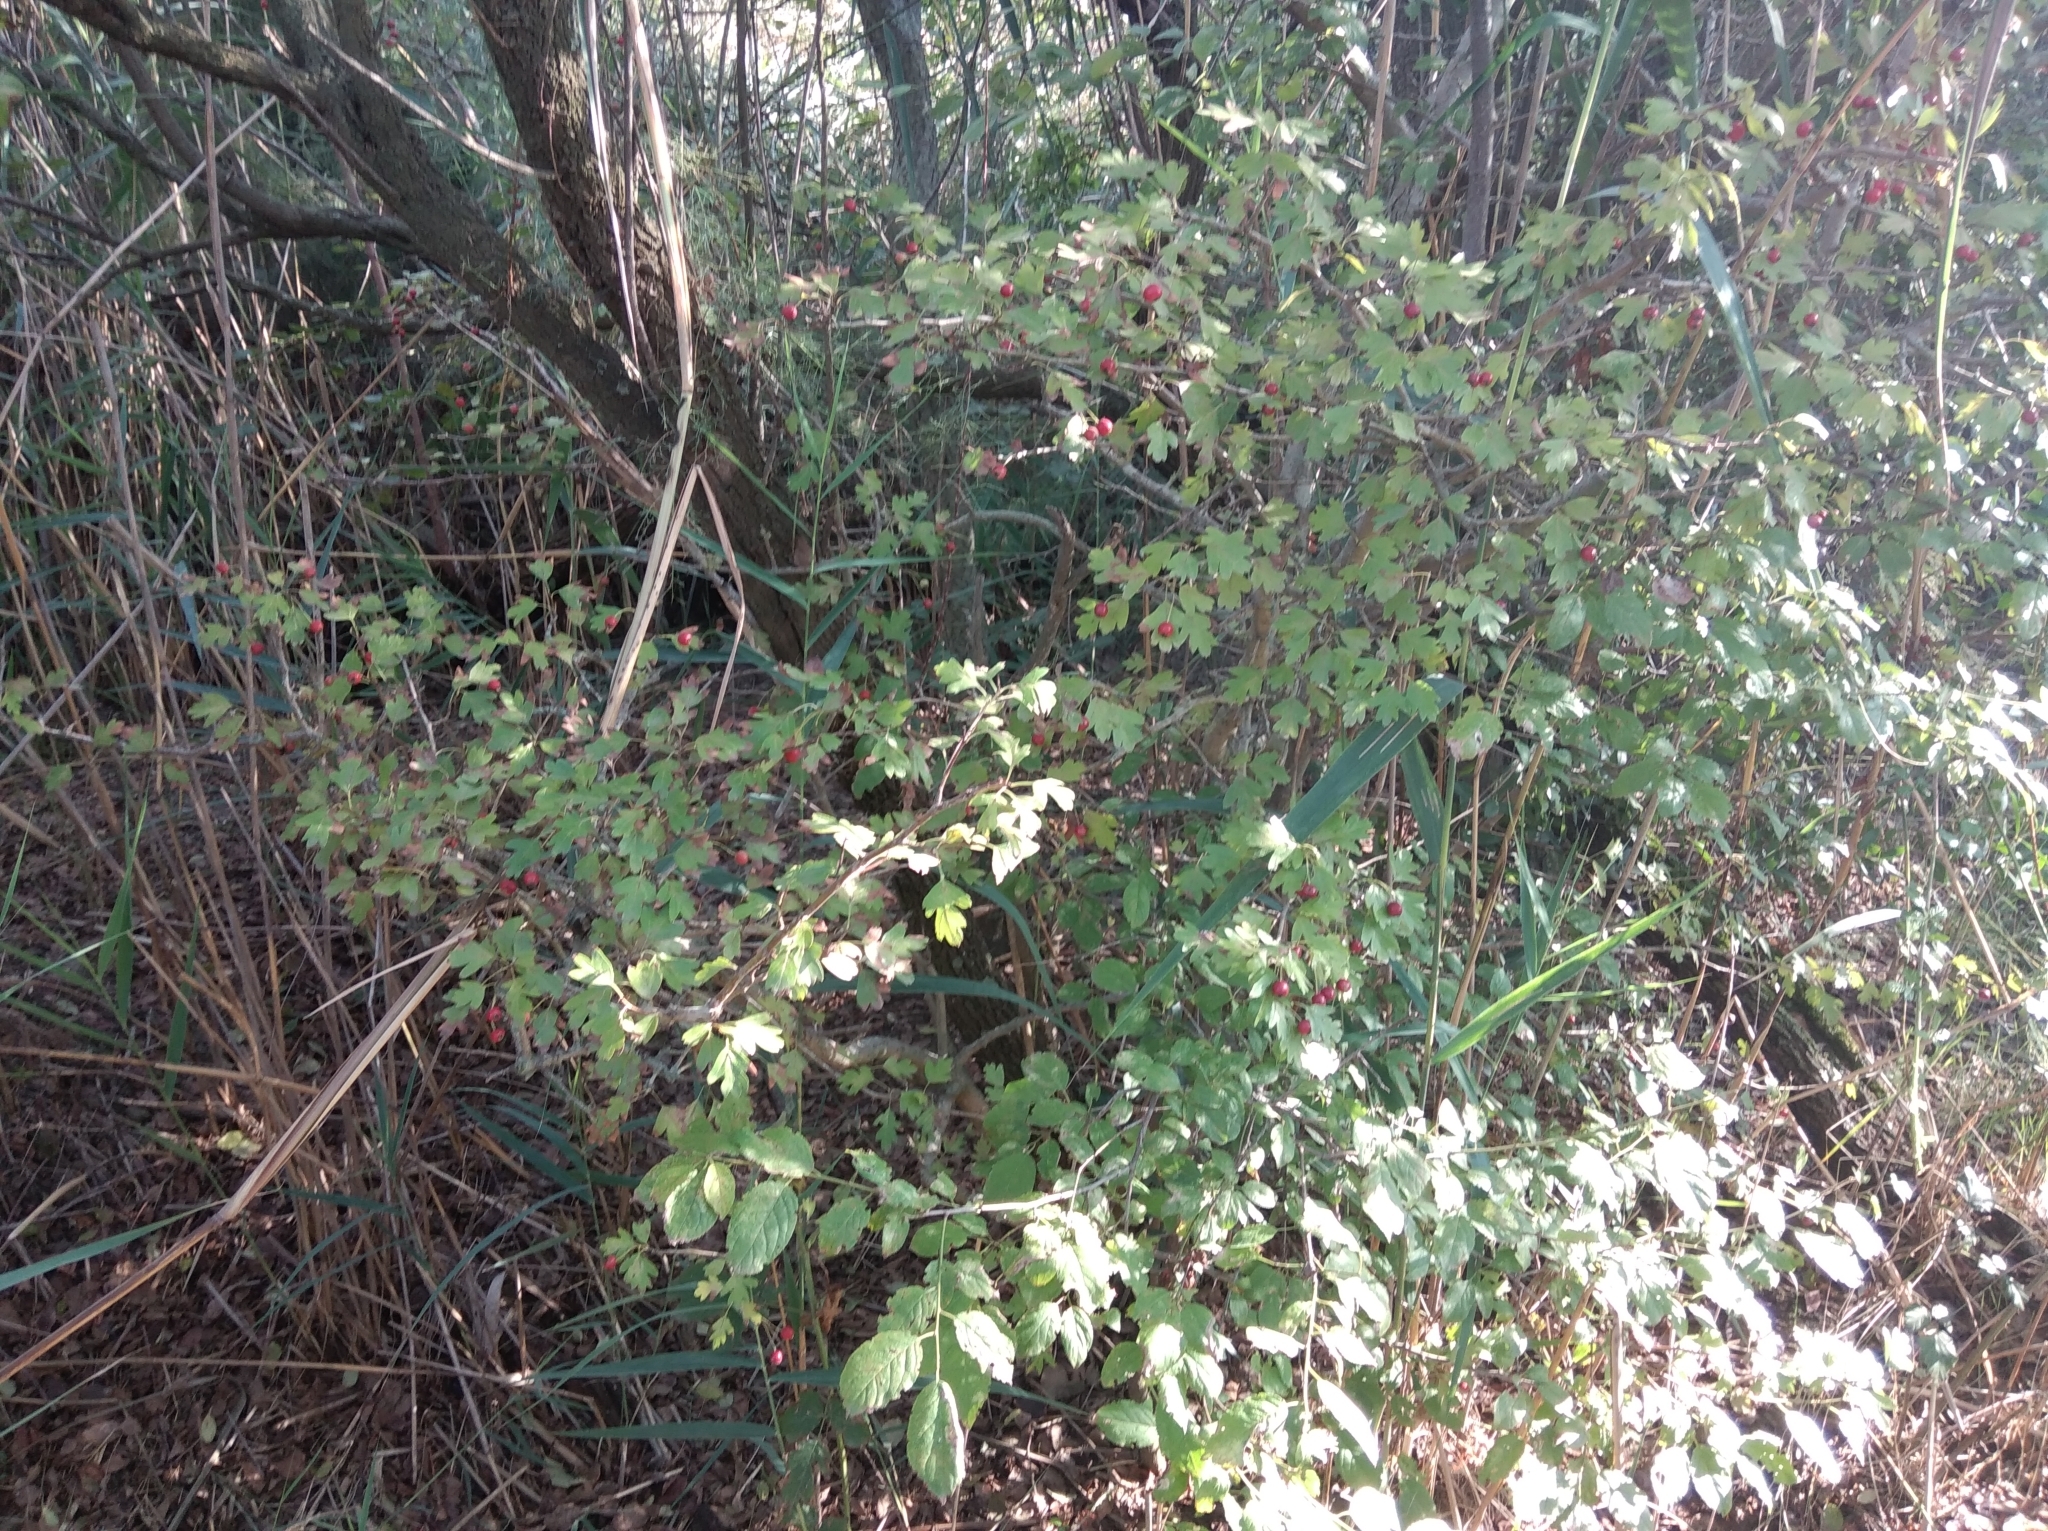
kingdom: Plantae
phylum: Tracheophyta
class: Magnoliopsida
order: Rosales
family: Rosaceae
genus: Crataegus
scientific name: Crataegus monogyna
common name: Hawthorn
